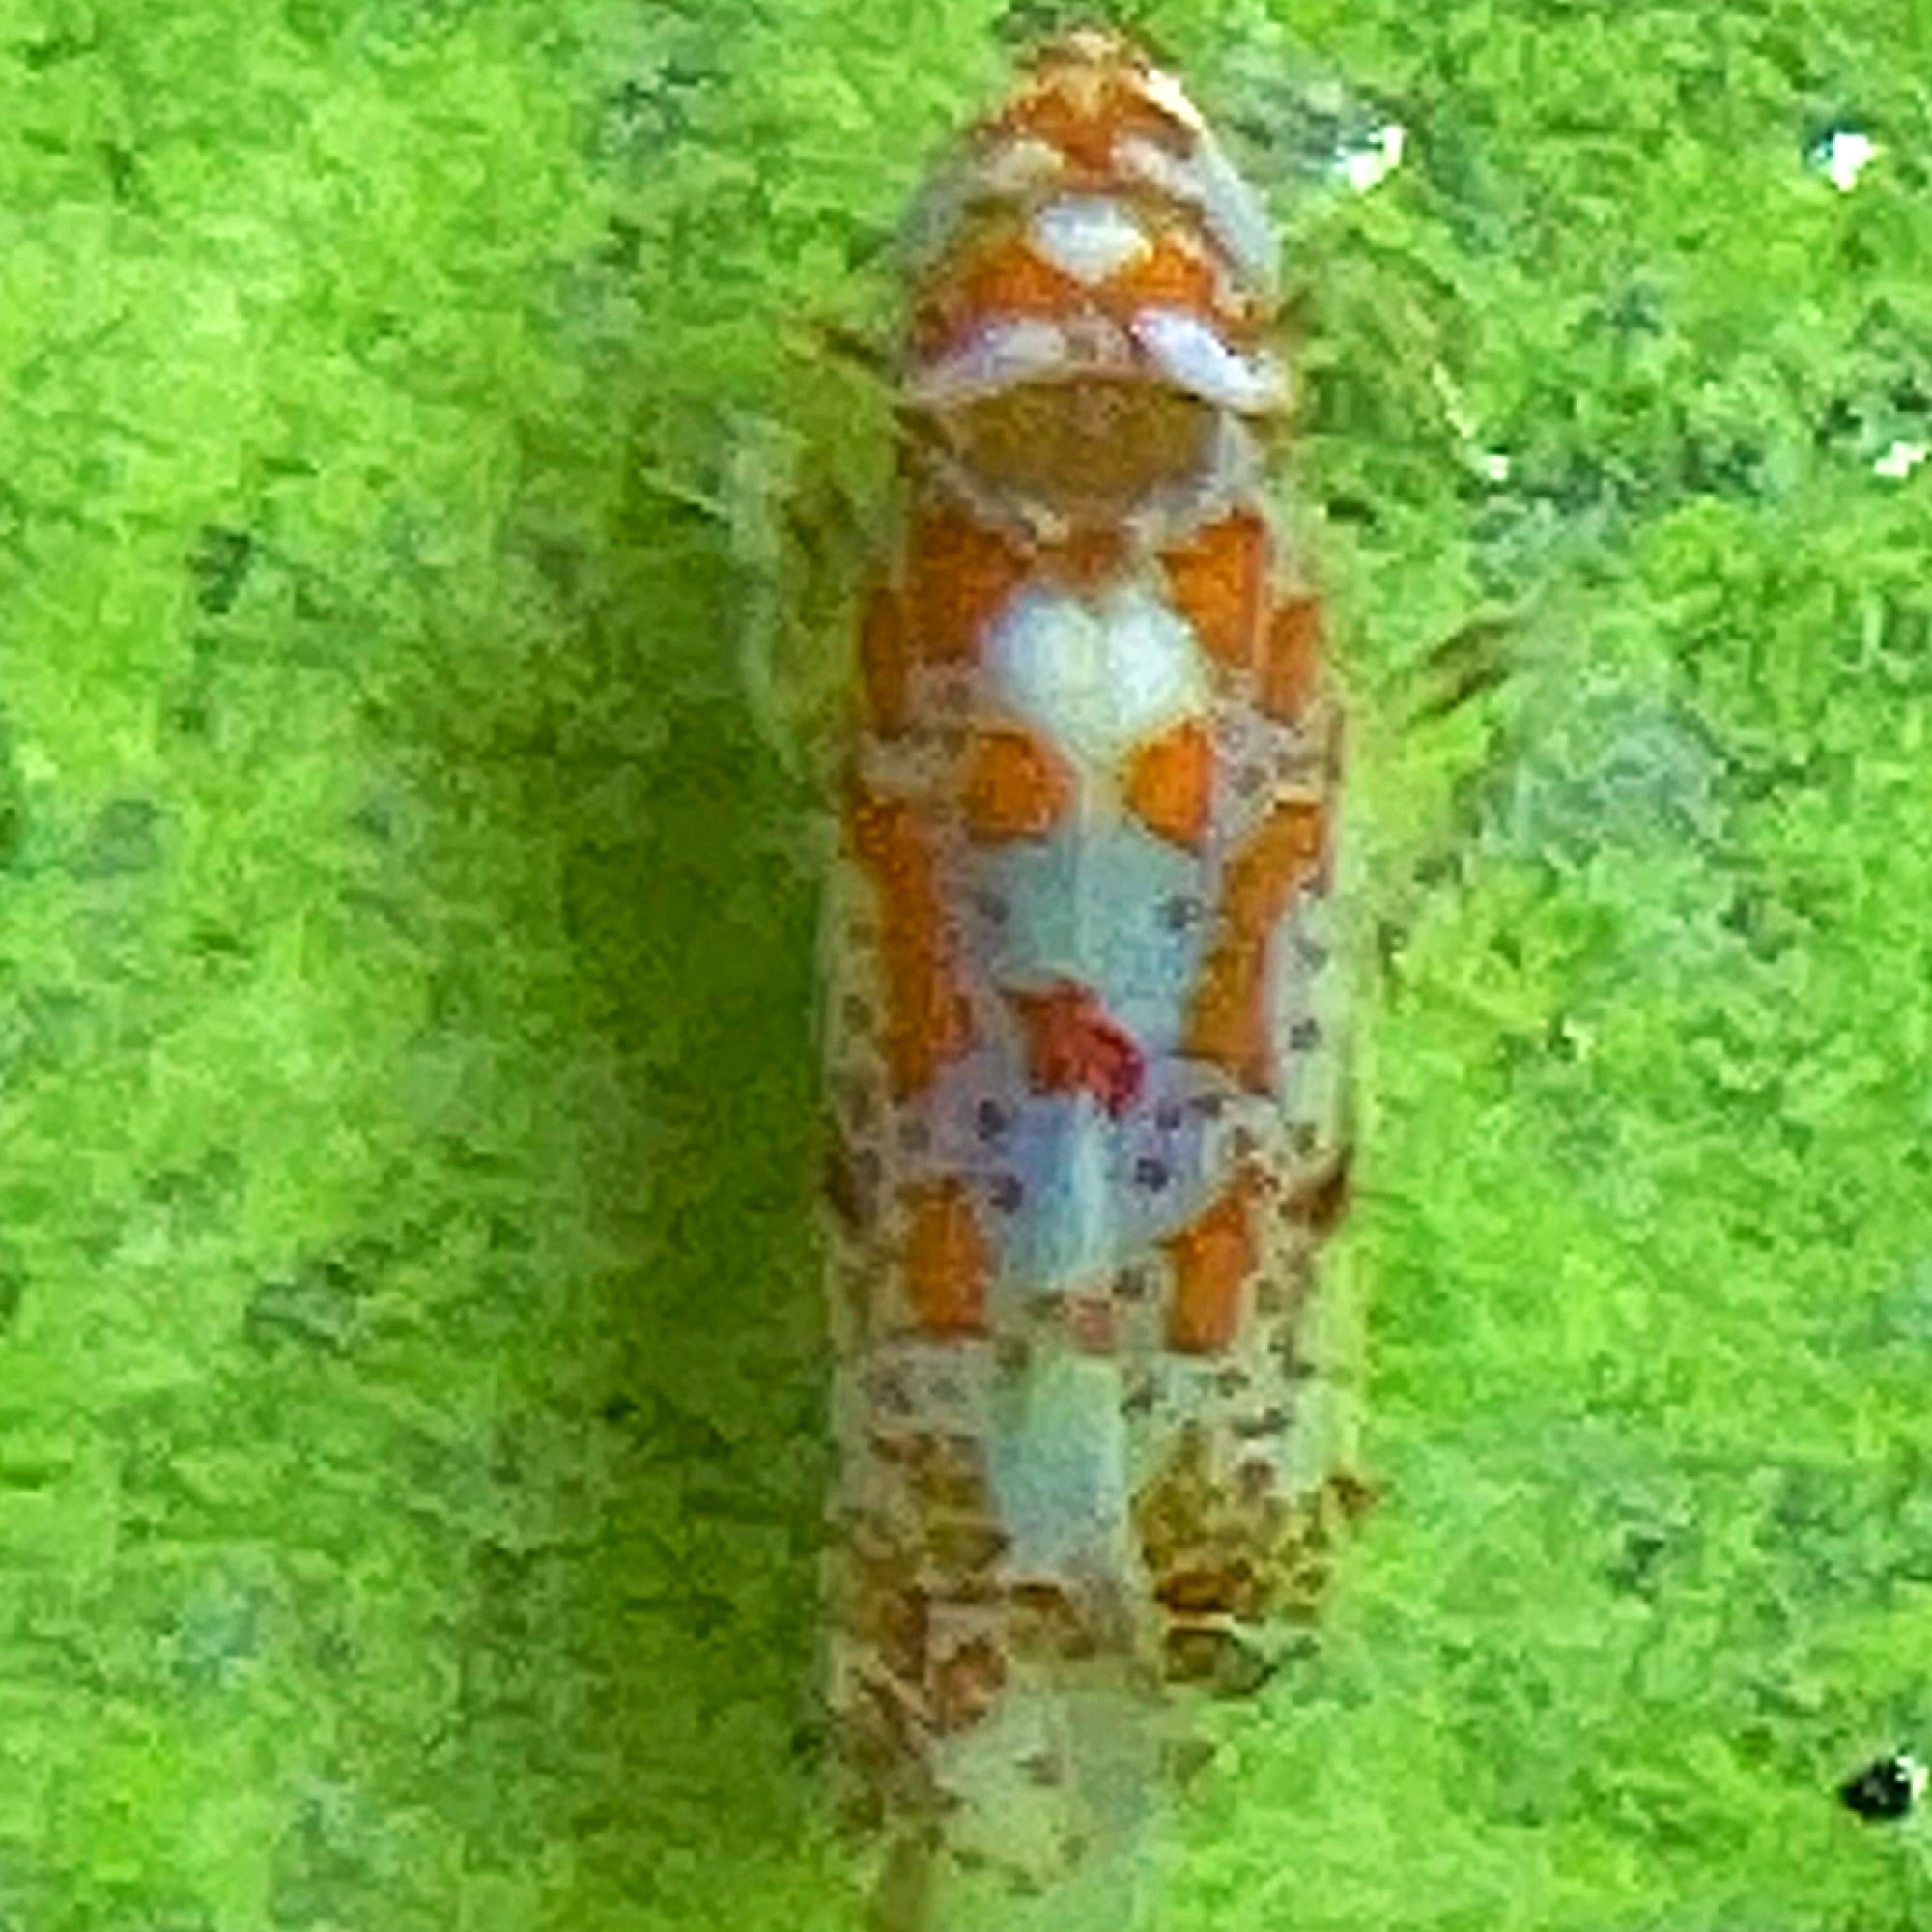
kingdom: Animalia
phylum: Arthropoda
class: Insecta
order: Hemiptera
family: Cicadellidae
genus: Dikrella
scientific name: Dikrella maculata
